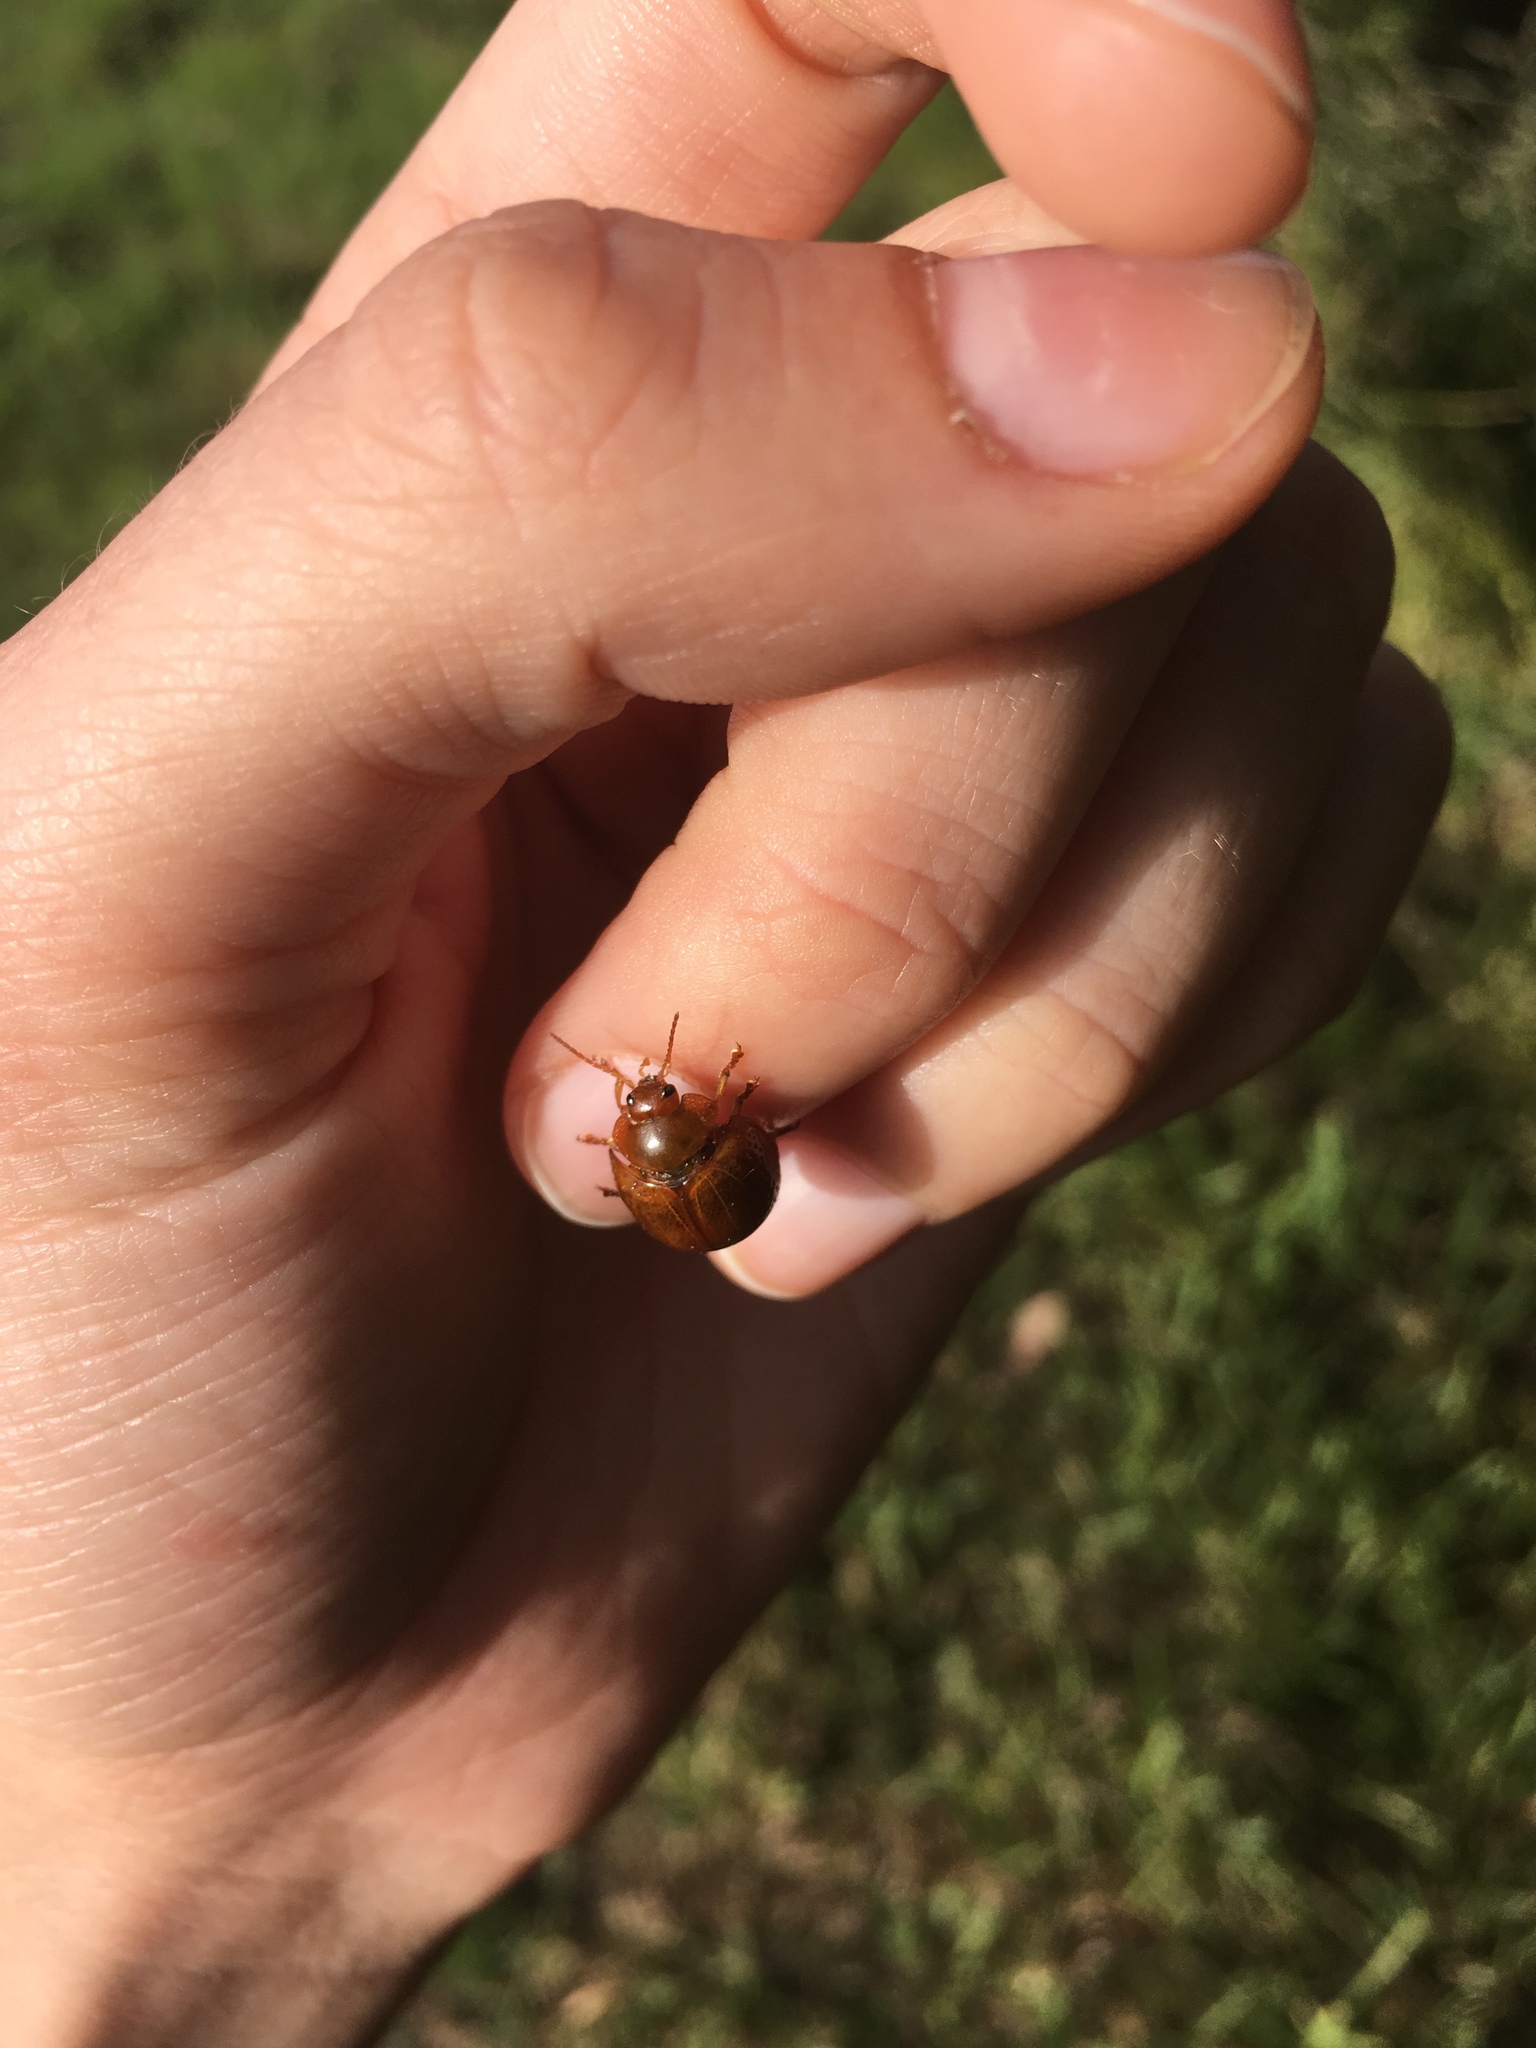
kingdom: Animalia
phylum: Arthropoda
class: Insecta
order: Coleoptera
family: Chrysomelidae
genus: Dicranosterna
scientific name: Dicranosterna
